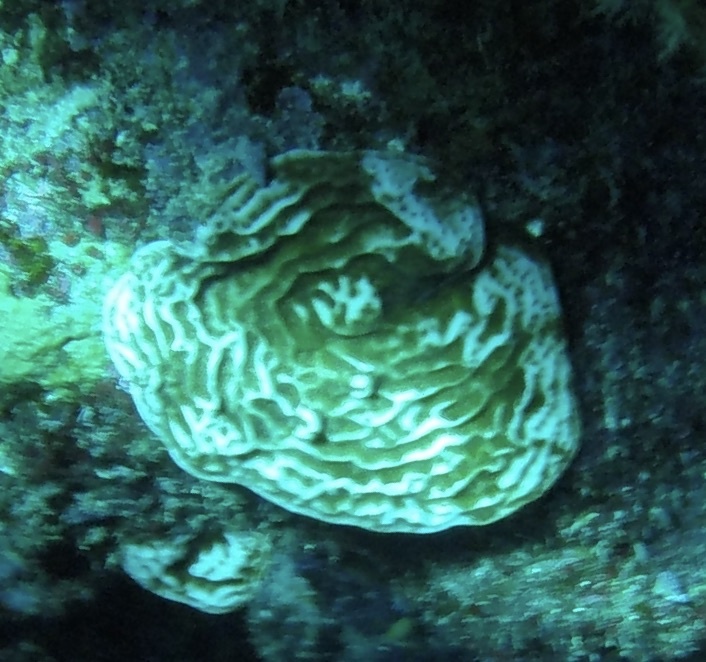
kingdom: Animalia
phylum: Cnidaria
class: Anthozoa
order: Scleractinia
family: Agariciidae
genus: Agaricia
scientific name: Agaricia fragilis
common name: Fragile saucer coral
